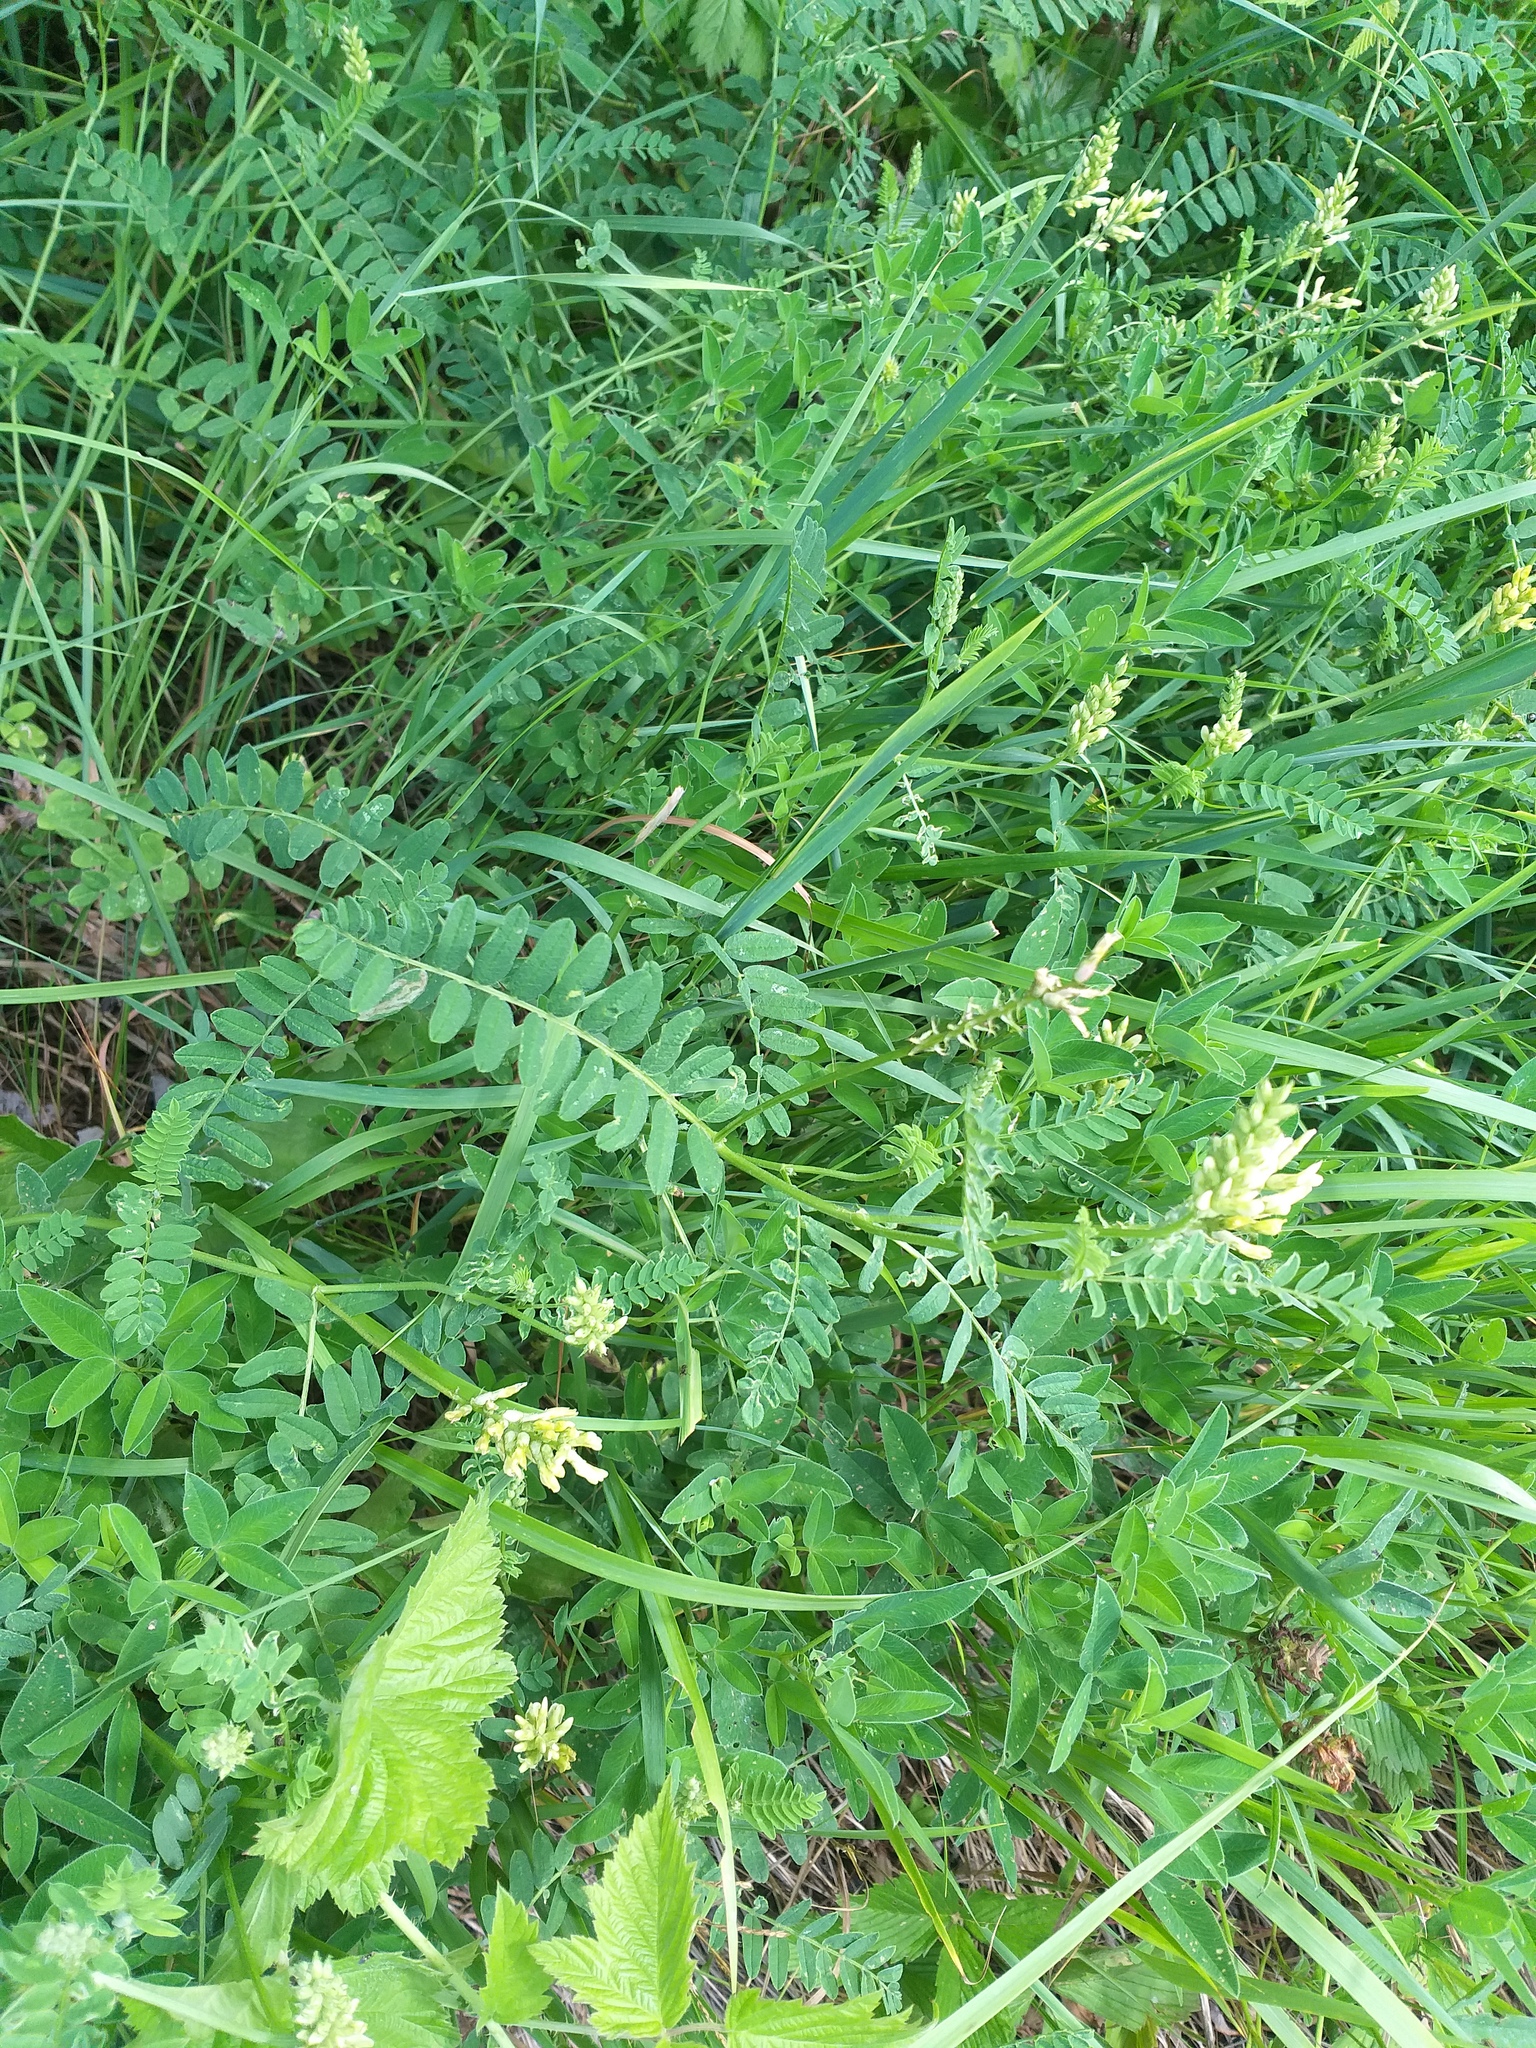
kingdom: Plantae
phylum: Tracheophyta
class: Magnoliopsida
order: Fabales
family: Fabaceae
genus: Astragalus
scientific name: Astragalus cicer
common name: Chick-pea milk-vetch
